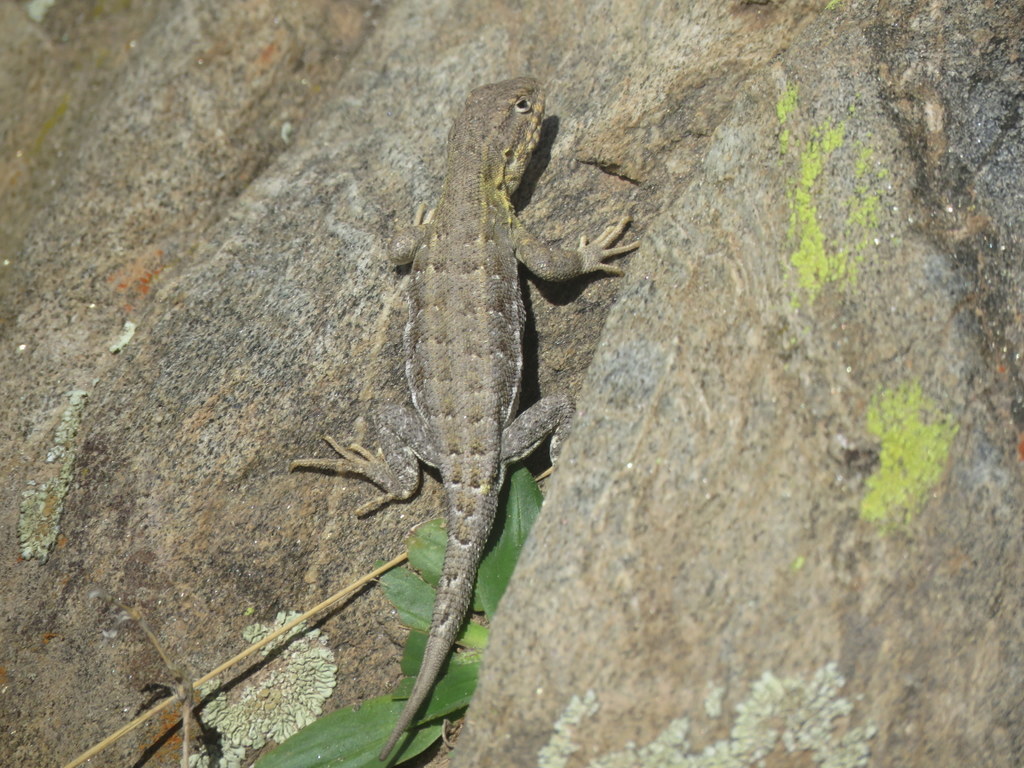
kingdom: Animalia
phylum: Chordata
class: Squamata
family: Liolaemidae
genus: Liolaemus
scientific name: Liolaemus quilmes
